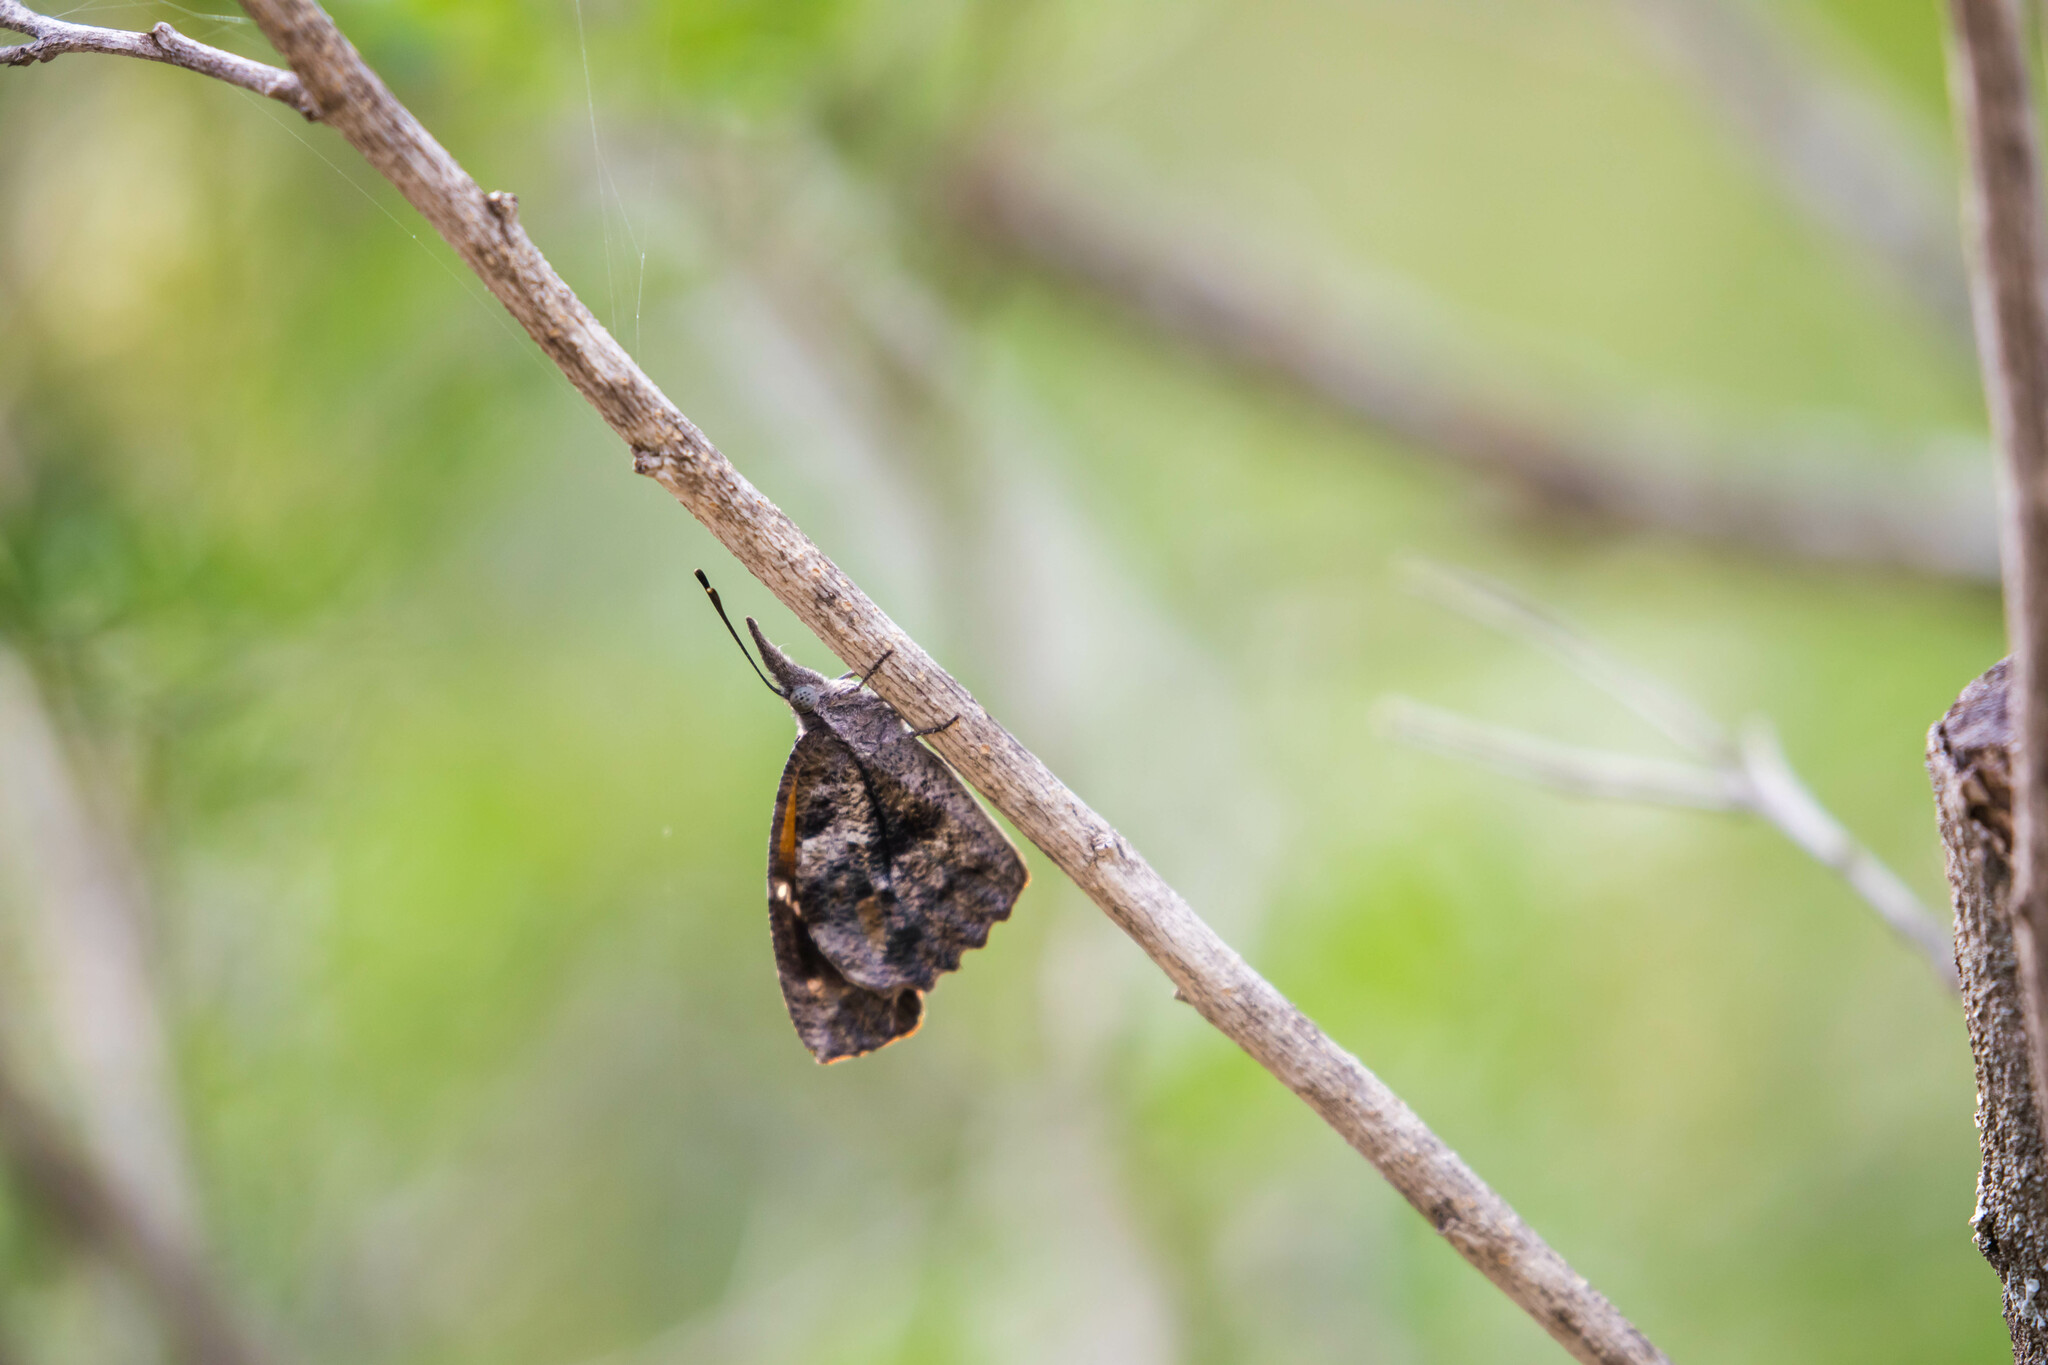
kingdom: Animalia
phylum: Arthropoda
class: Insecta
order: Lepidoptera
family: Nymphalidae
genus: Libytheana
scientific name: Libytheana carinenta
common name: American snout
